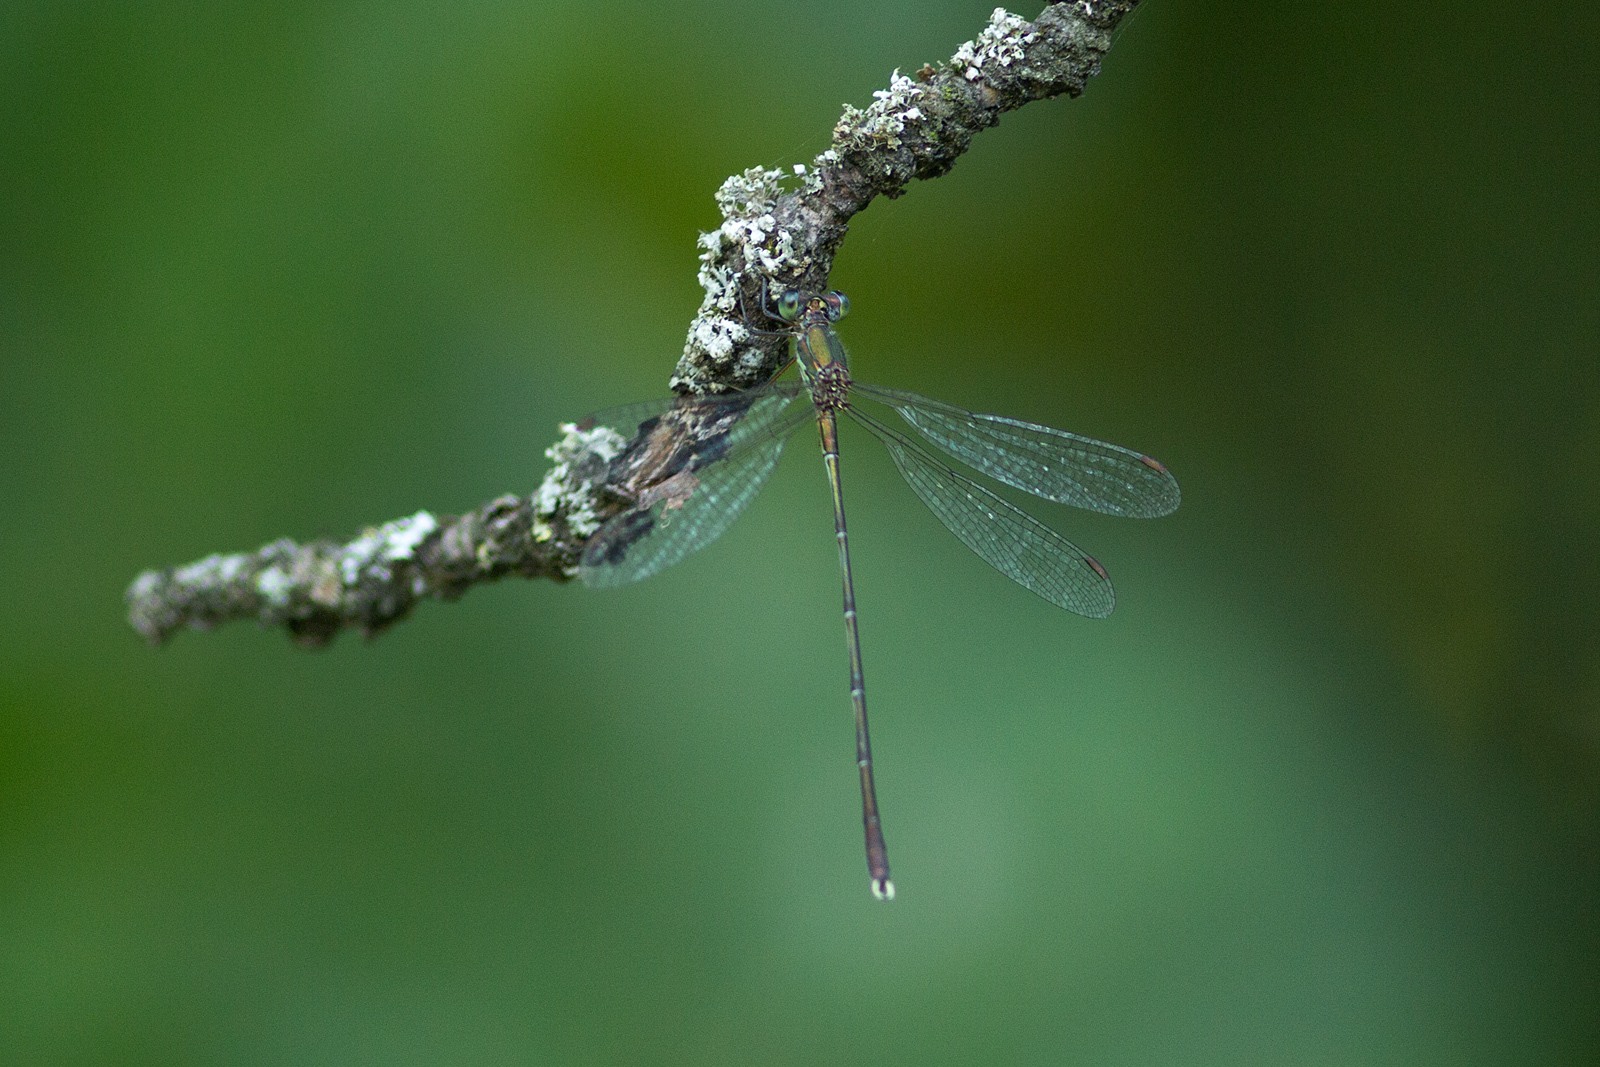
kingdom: Animalia
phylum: Arthropoda
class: Insecta
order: Odonata
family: Lestidae
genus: Chalcolestes
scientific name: Chalcolestes parvidens
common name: Eastern willow spreadwing
